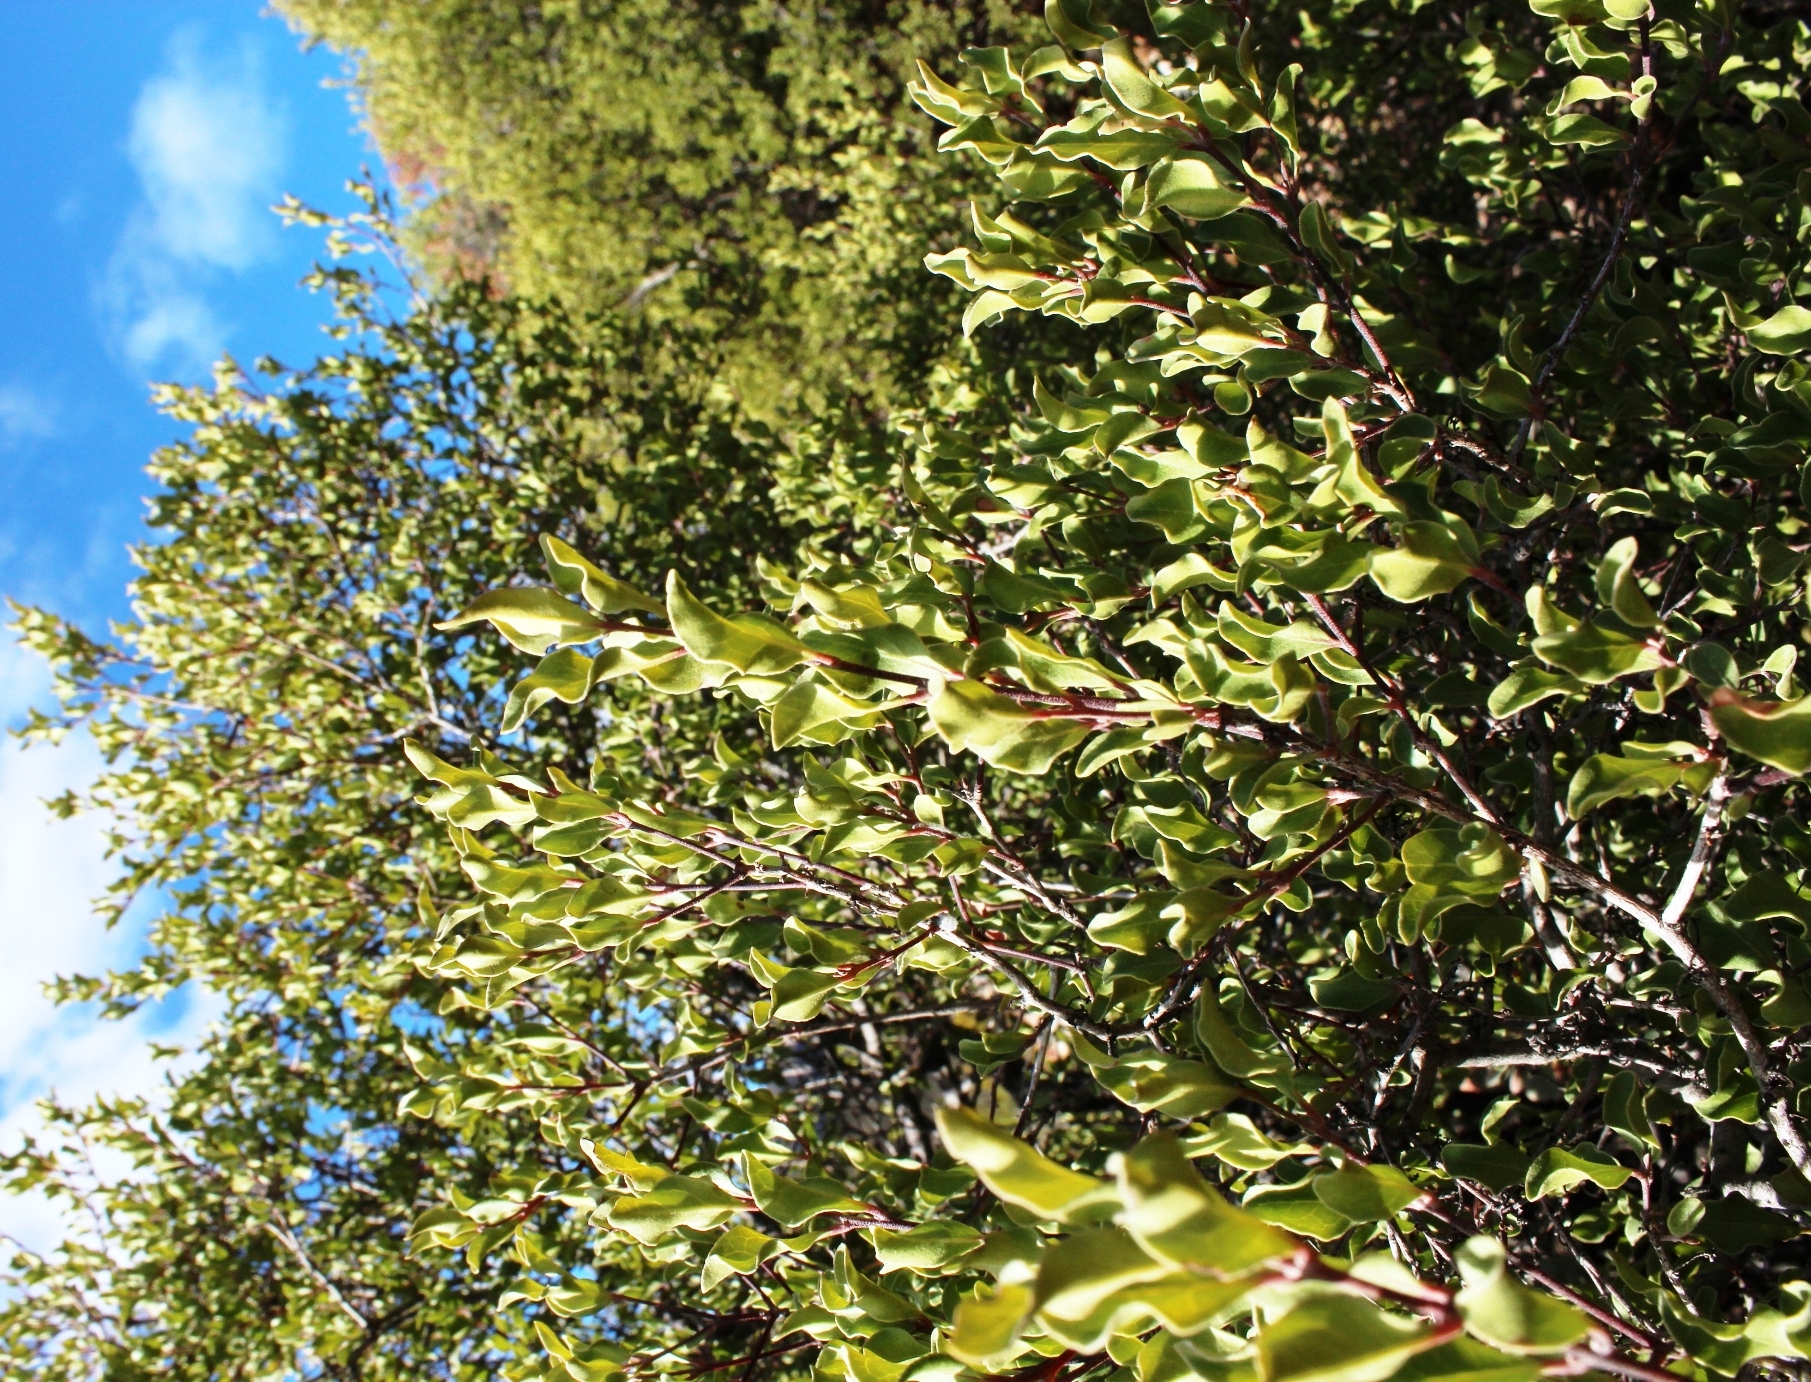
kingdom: Plantae
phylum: Tracheophyta
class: Magnoliopsida
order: Ericales
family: Ebenaceae
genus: Euclea
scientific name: Euclea undulata
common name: Small-leaved guarri
